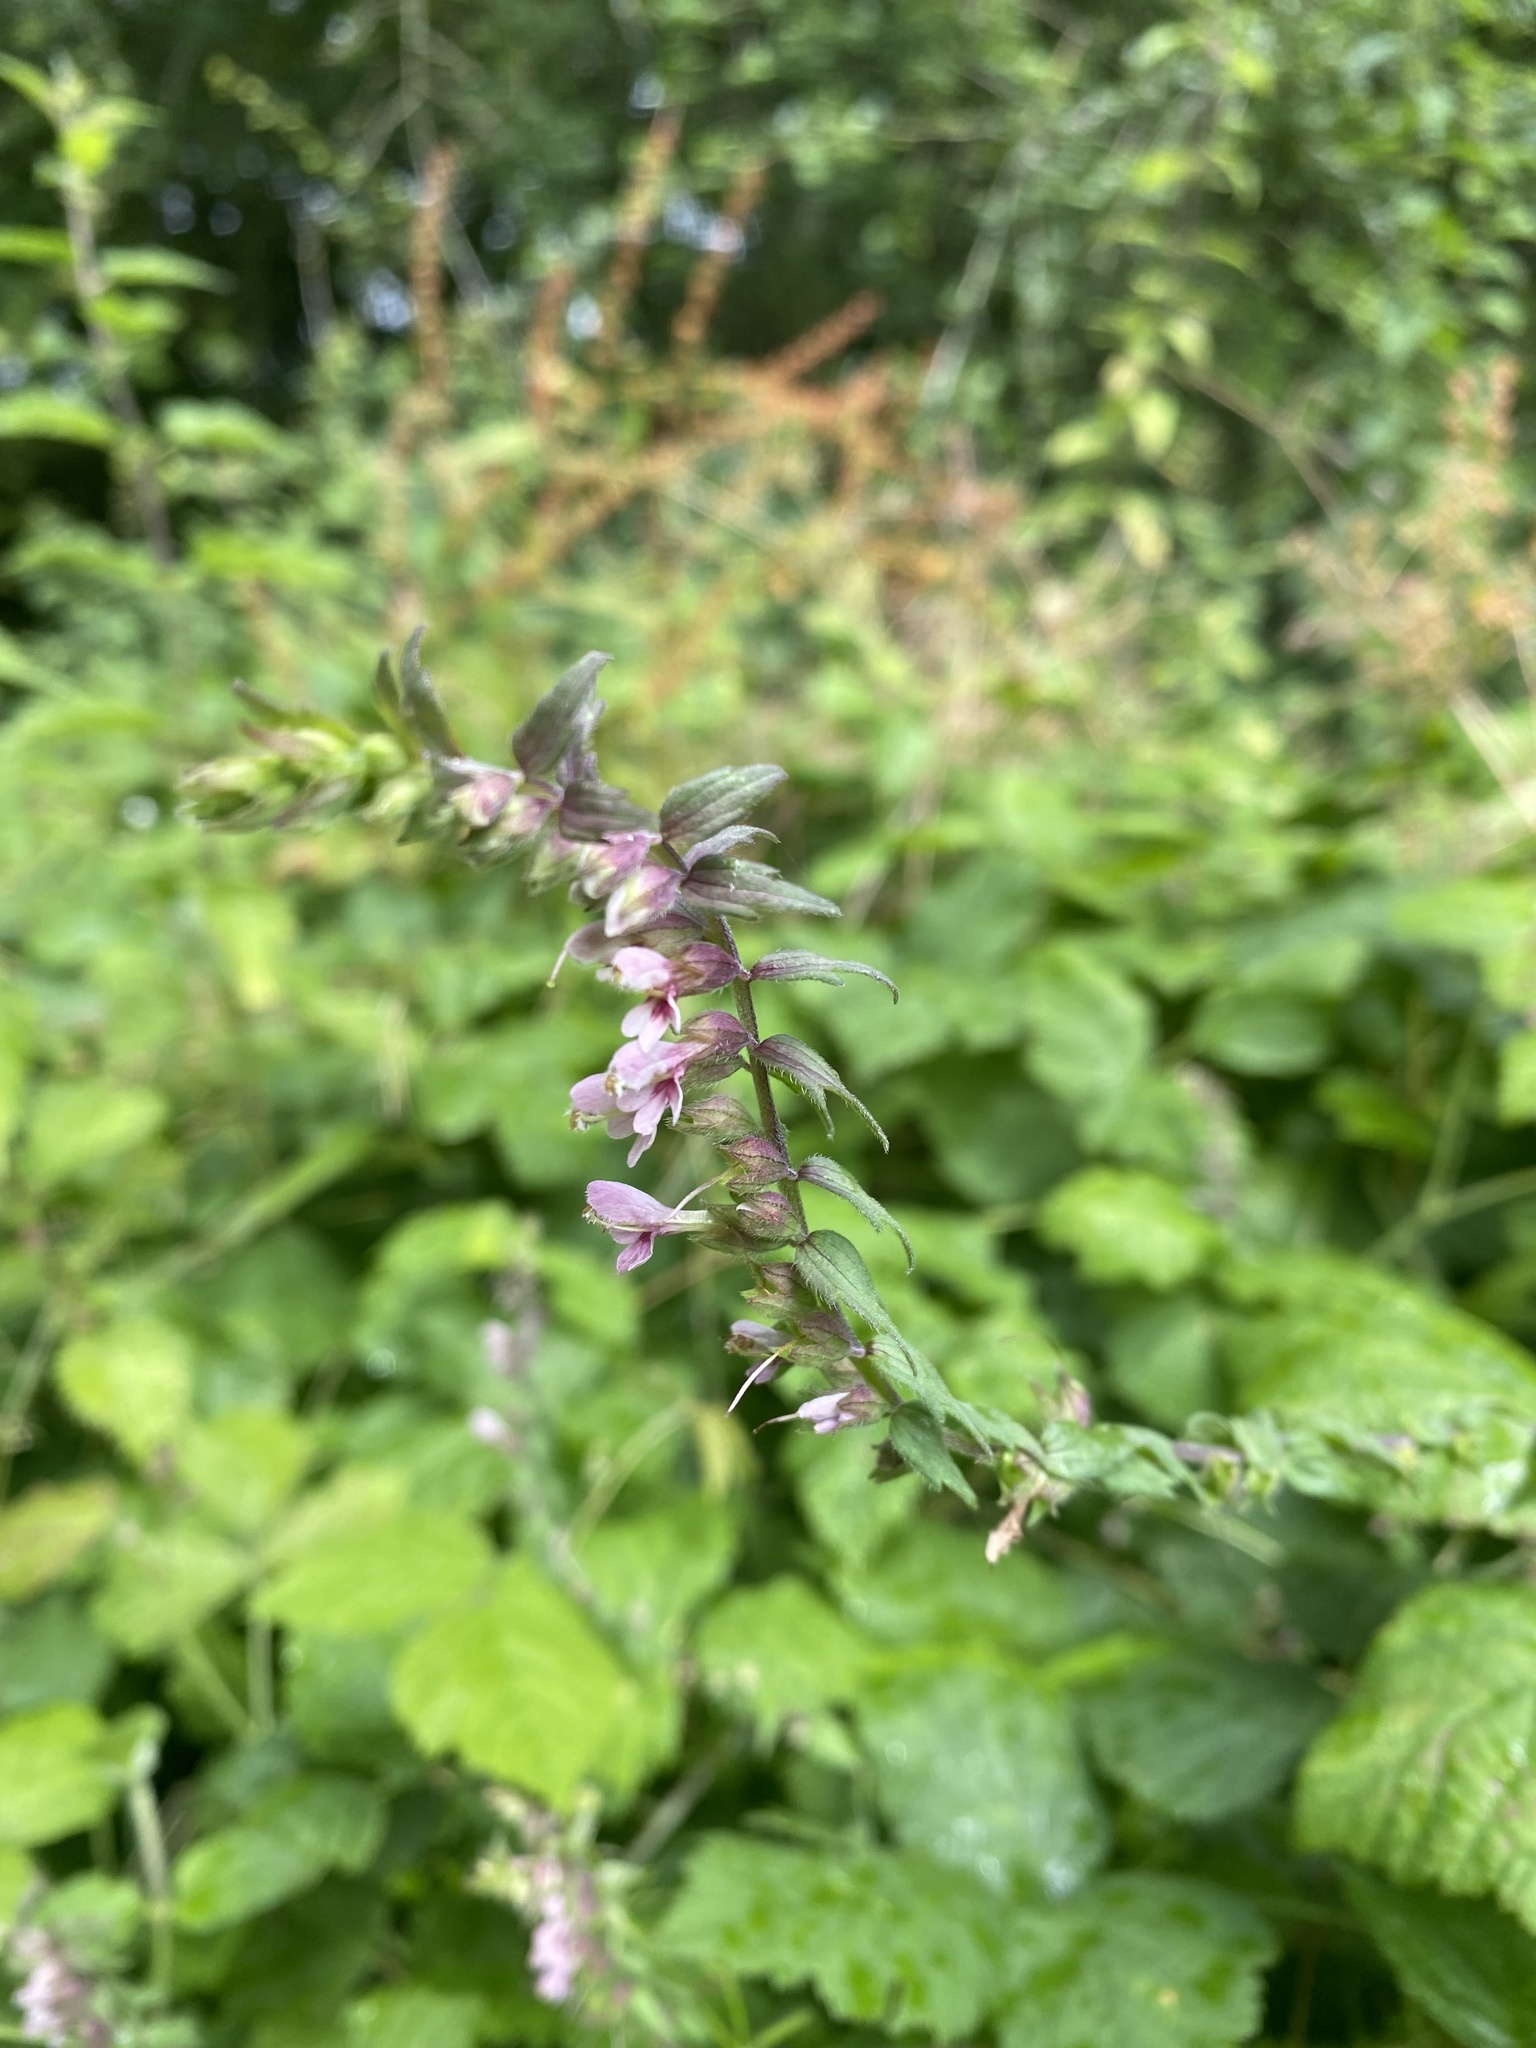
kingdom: Plantae
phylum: Tracheophyta
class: Magnoliopsida
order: Lamiales
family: Orobanchaceae
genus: Odontites
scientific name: Odontites vulgaris
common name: Broomrape
